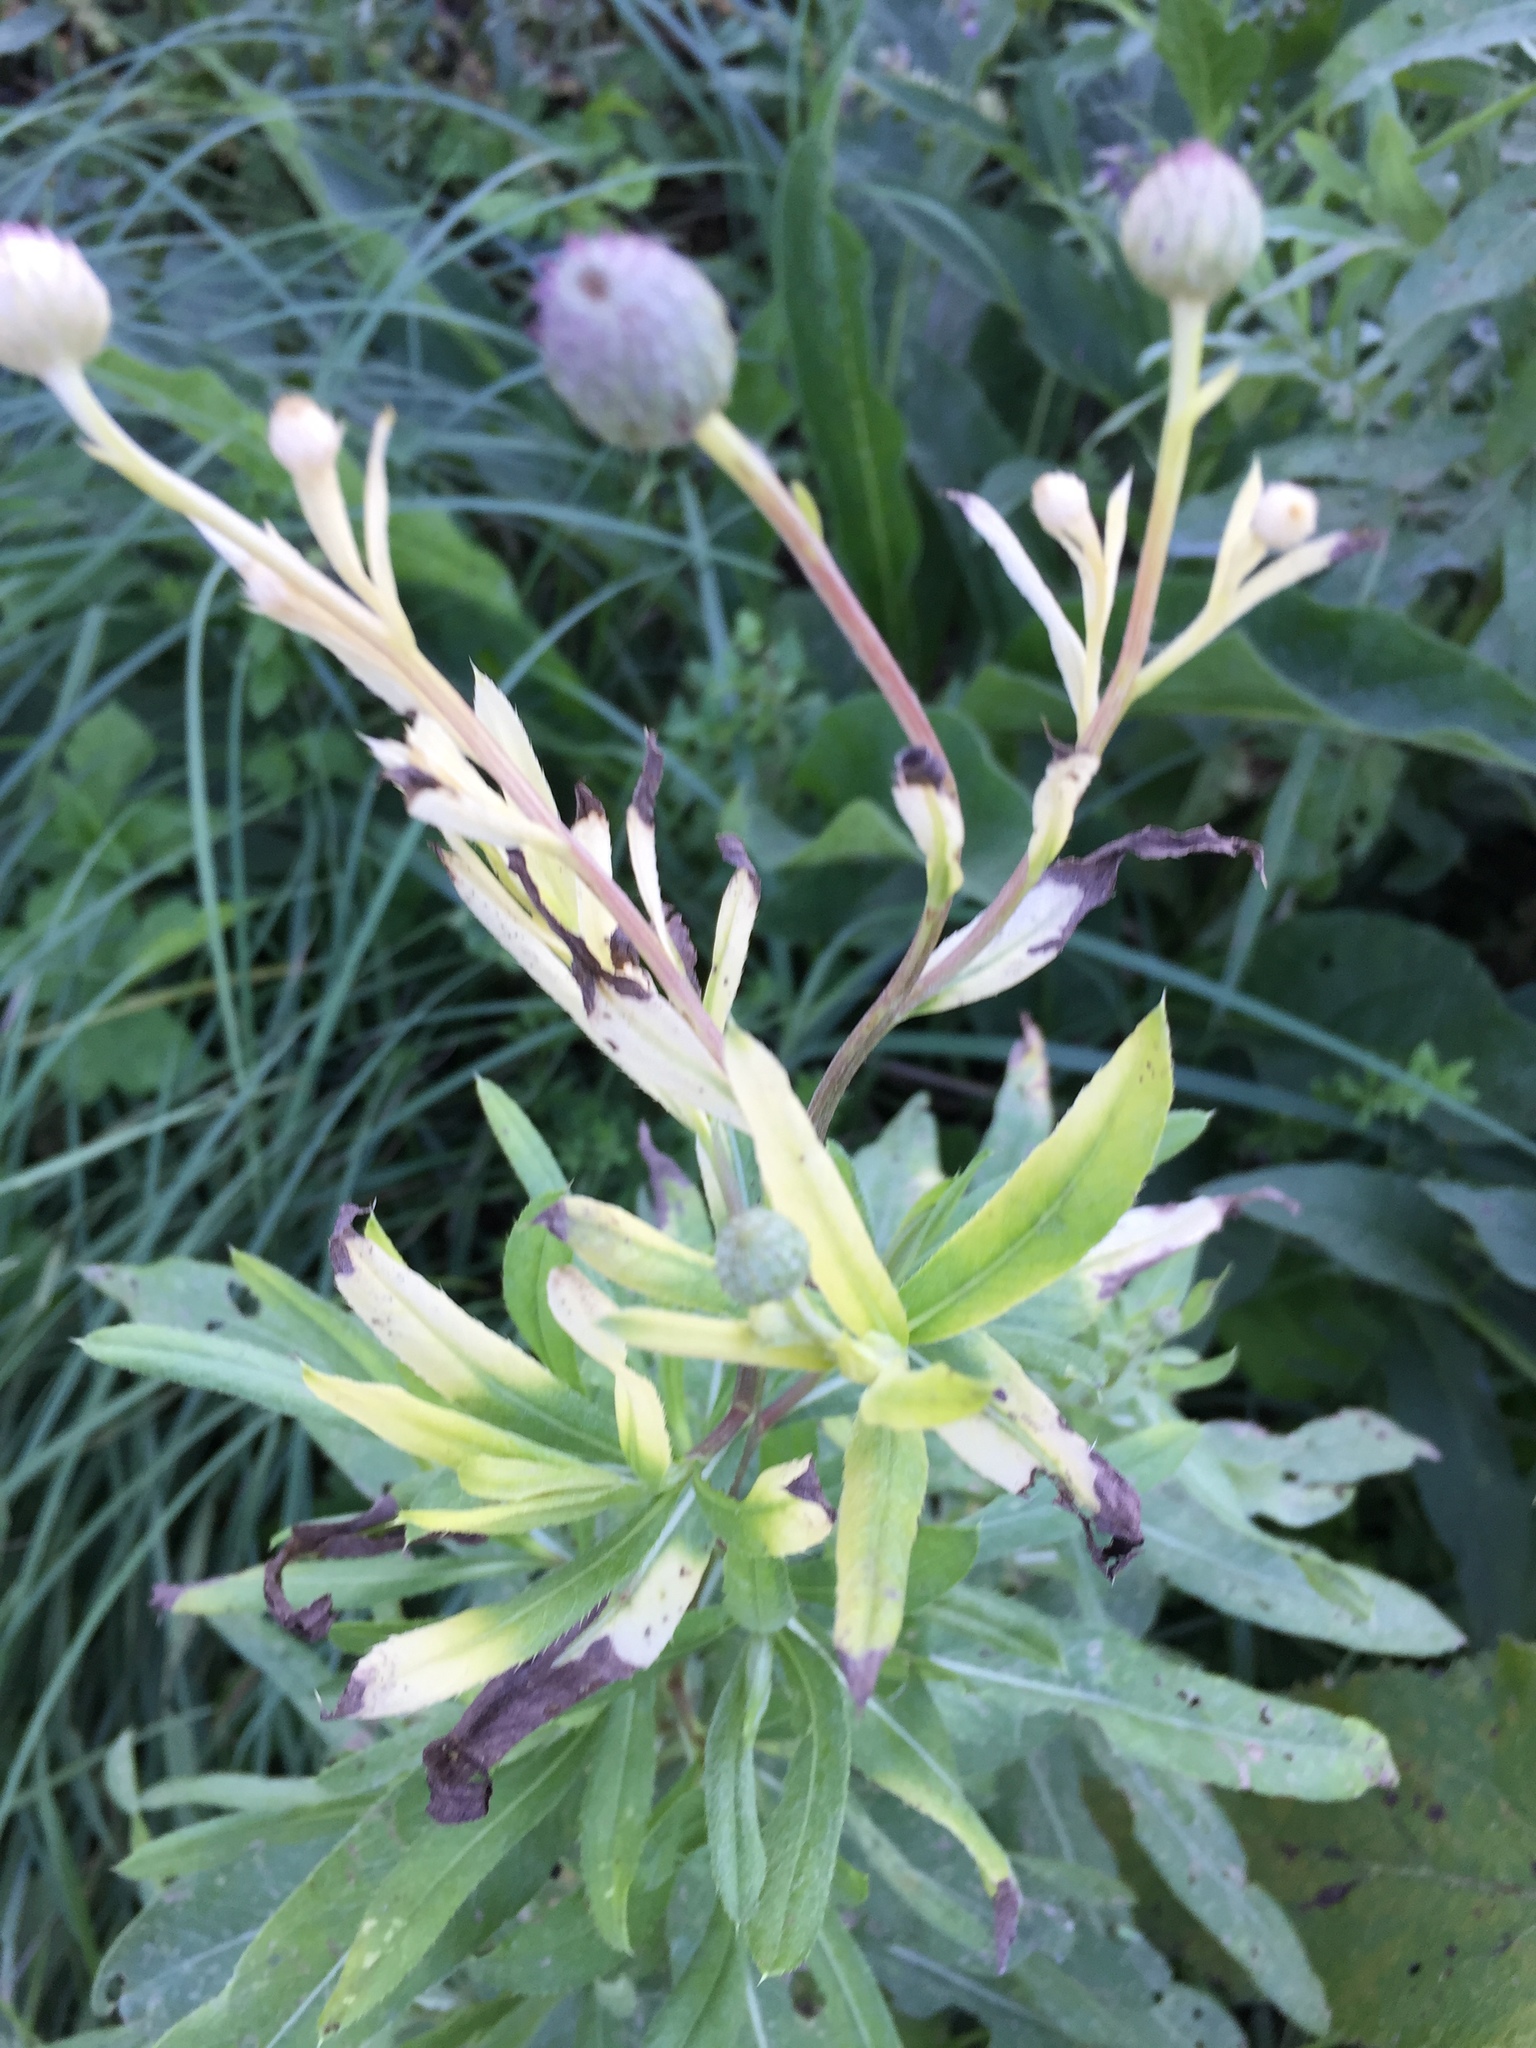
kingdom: Plantae
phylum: Tracheophyta
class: Magnoliopsida
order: Asterales
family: Asteraceae
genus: Cirsium
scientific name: Cirsium arvense
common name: Creeping thistle
